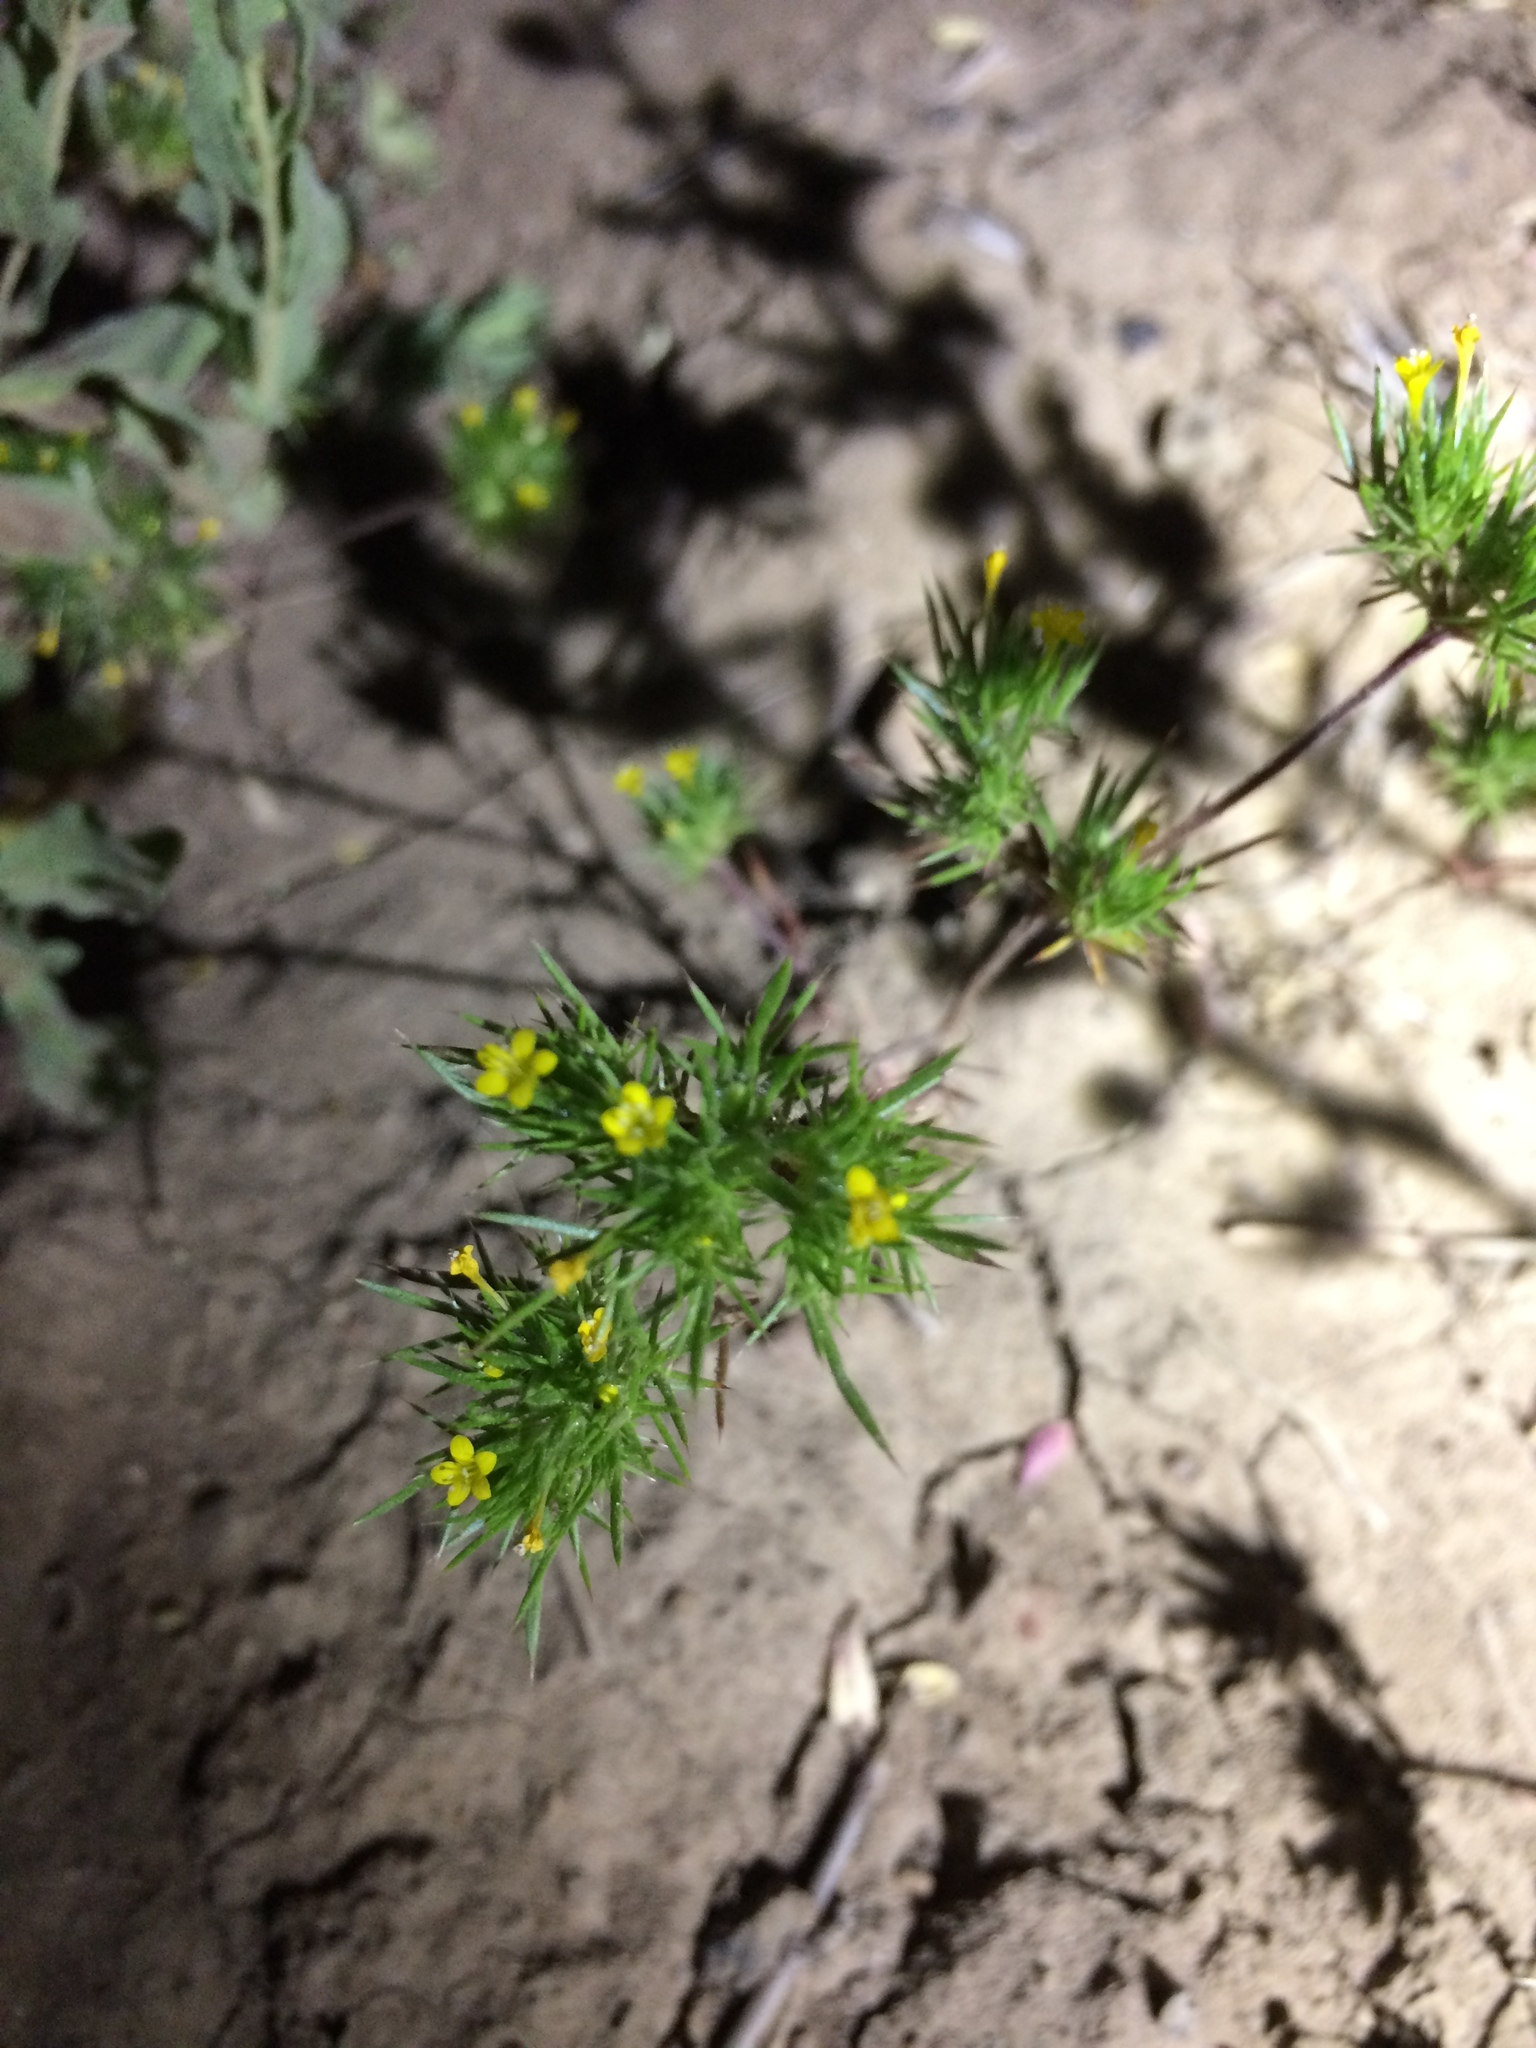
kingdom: Plantae
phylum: Tracheophyta
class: Magnoliopsida
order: Ericales
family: Polemoniaceae
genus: Navarretia
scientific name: Navarretia breweri
